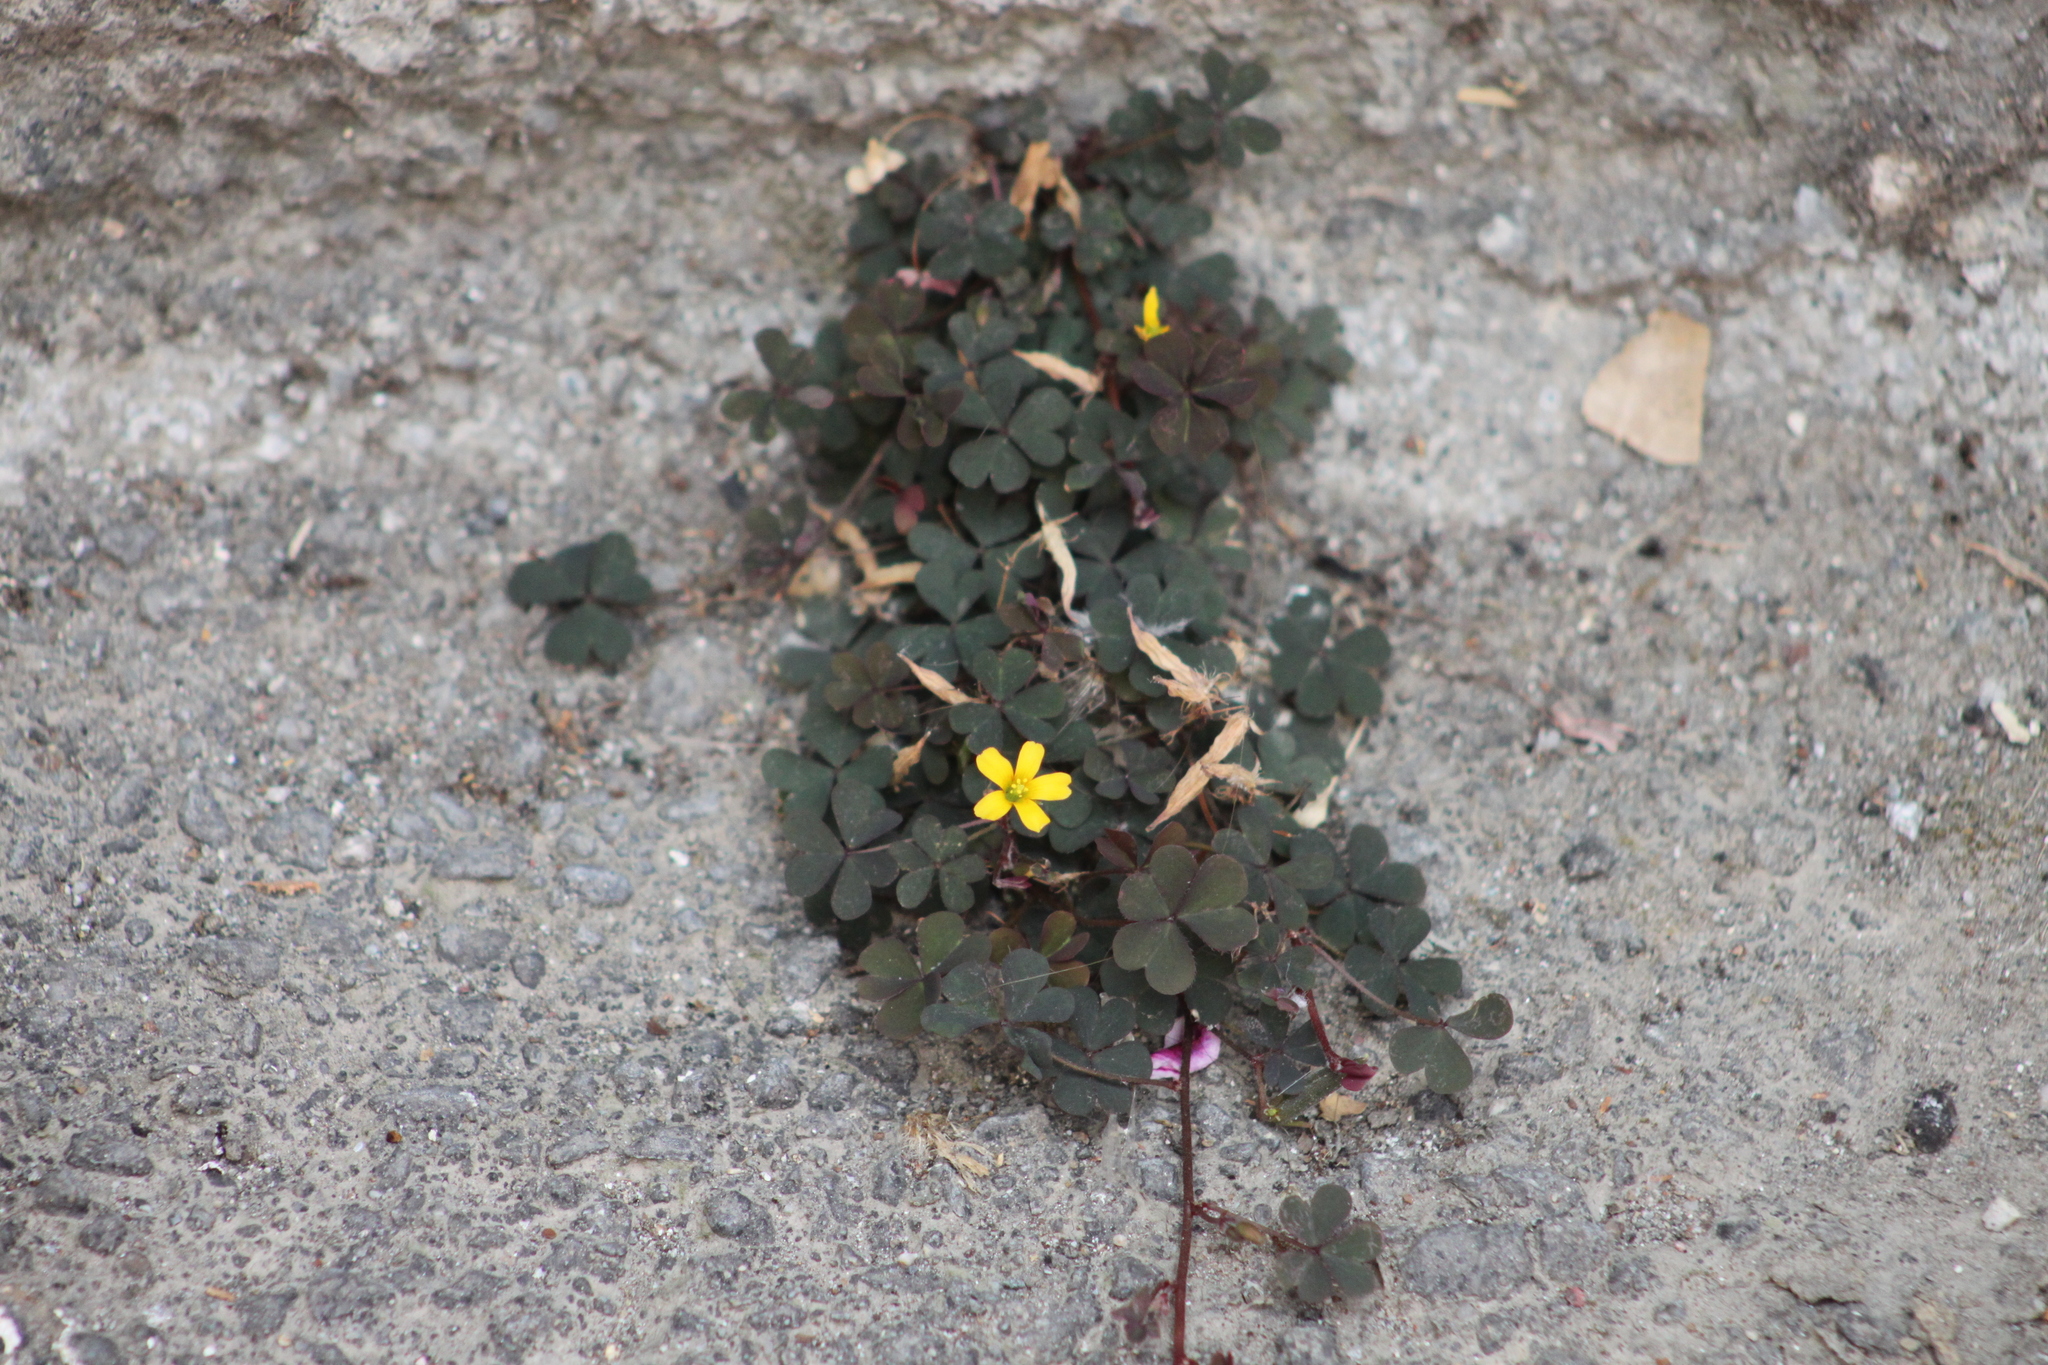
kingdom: Plantae
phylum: Tracheophyta
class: Magnoliopsida
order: Oxalidales
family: Oxalidaceae
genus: Oxalis
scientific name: Oxalis corniculata
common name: Procumbent yellow-sorrel
